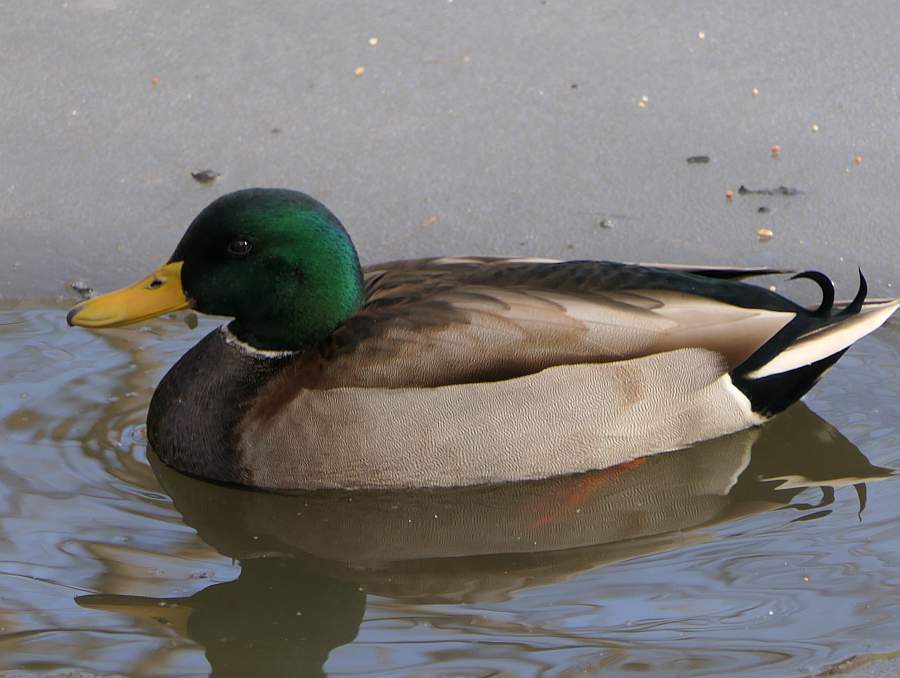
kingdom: Animalia
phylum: Chordata
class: Aves
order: Anseriformes
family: Anatidae
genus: Anas
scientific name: Anas platyrhynchos
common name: Mallard
